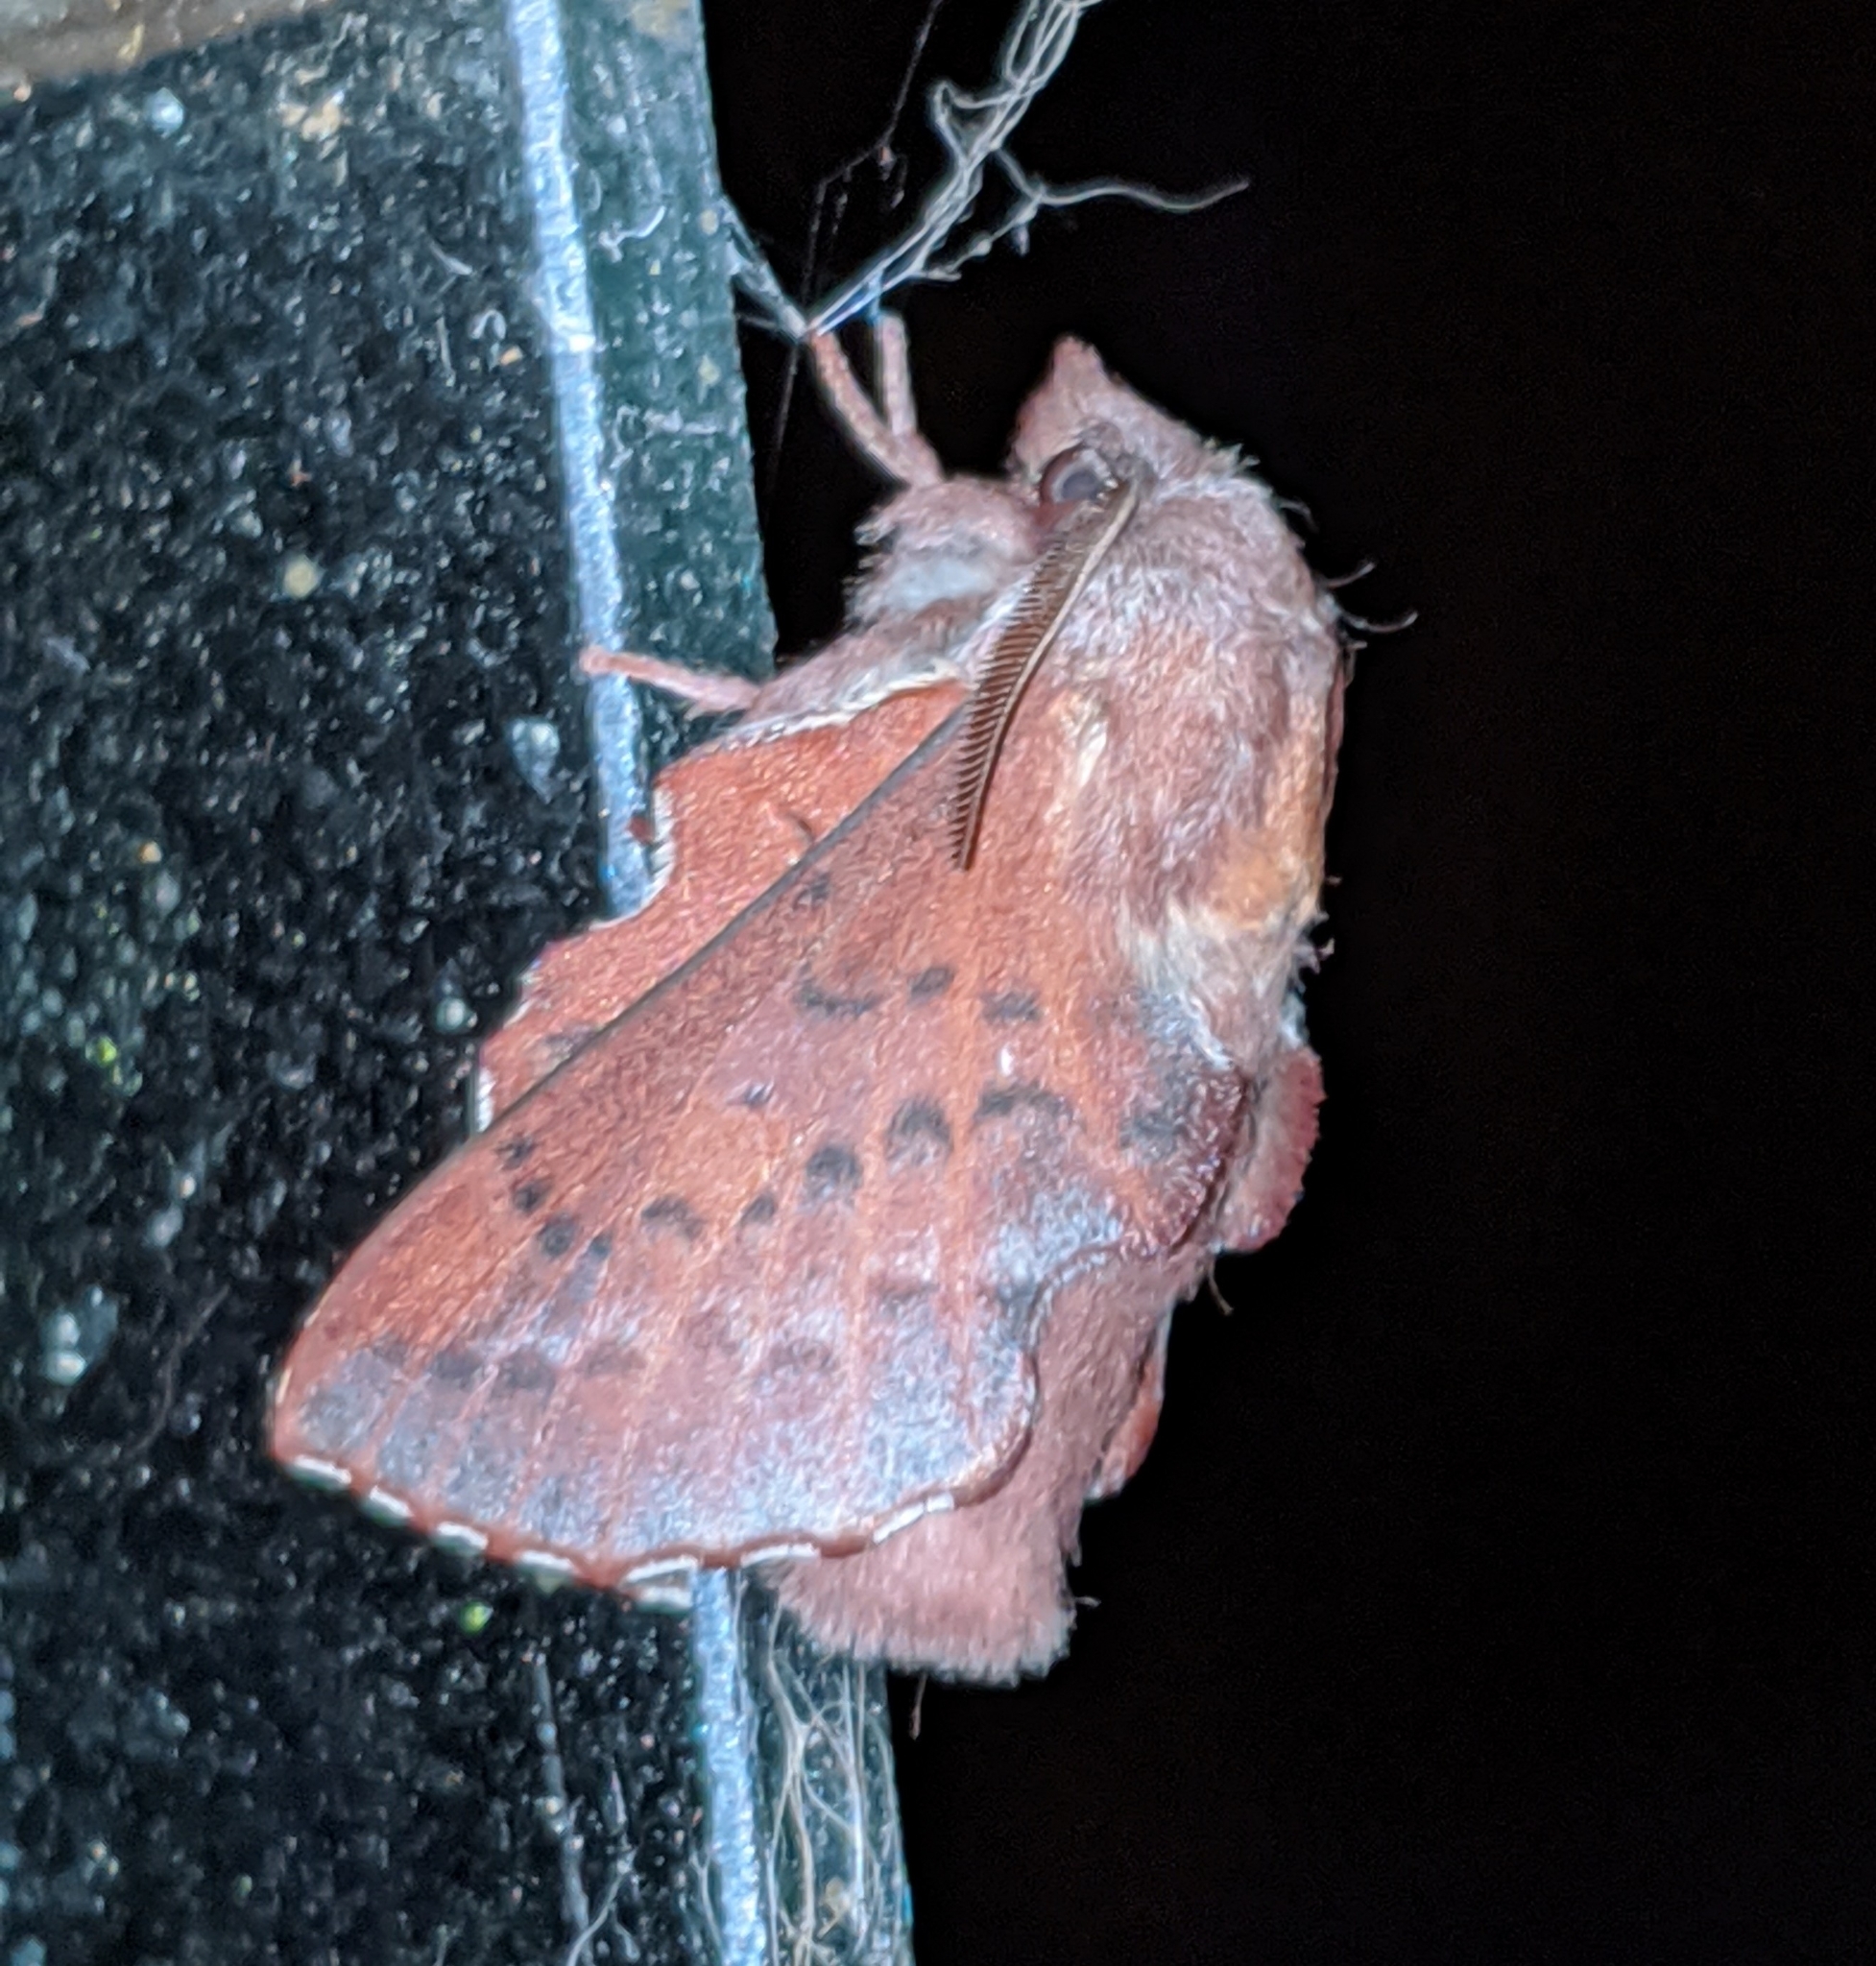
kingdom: Animalia
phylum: Arthropoda
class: Insecta
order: Lepidoptera
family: Lasiocampidae
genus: Phyllodesma
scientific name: Phyllodesma americana
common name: American lappet moth
